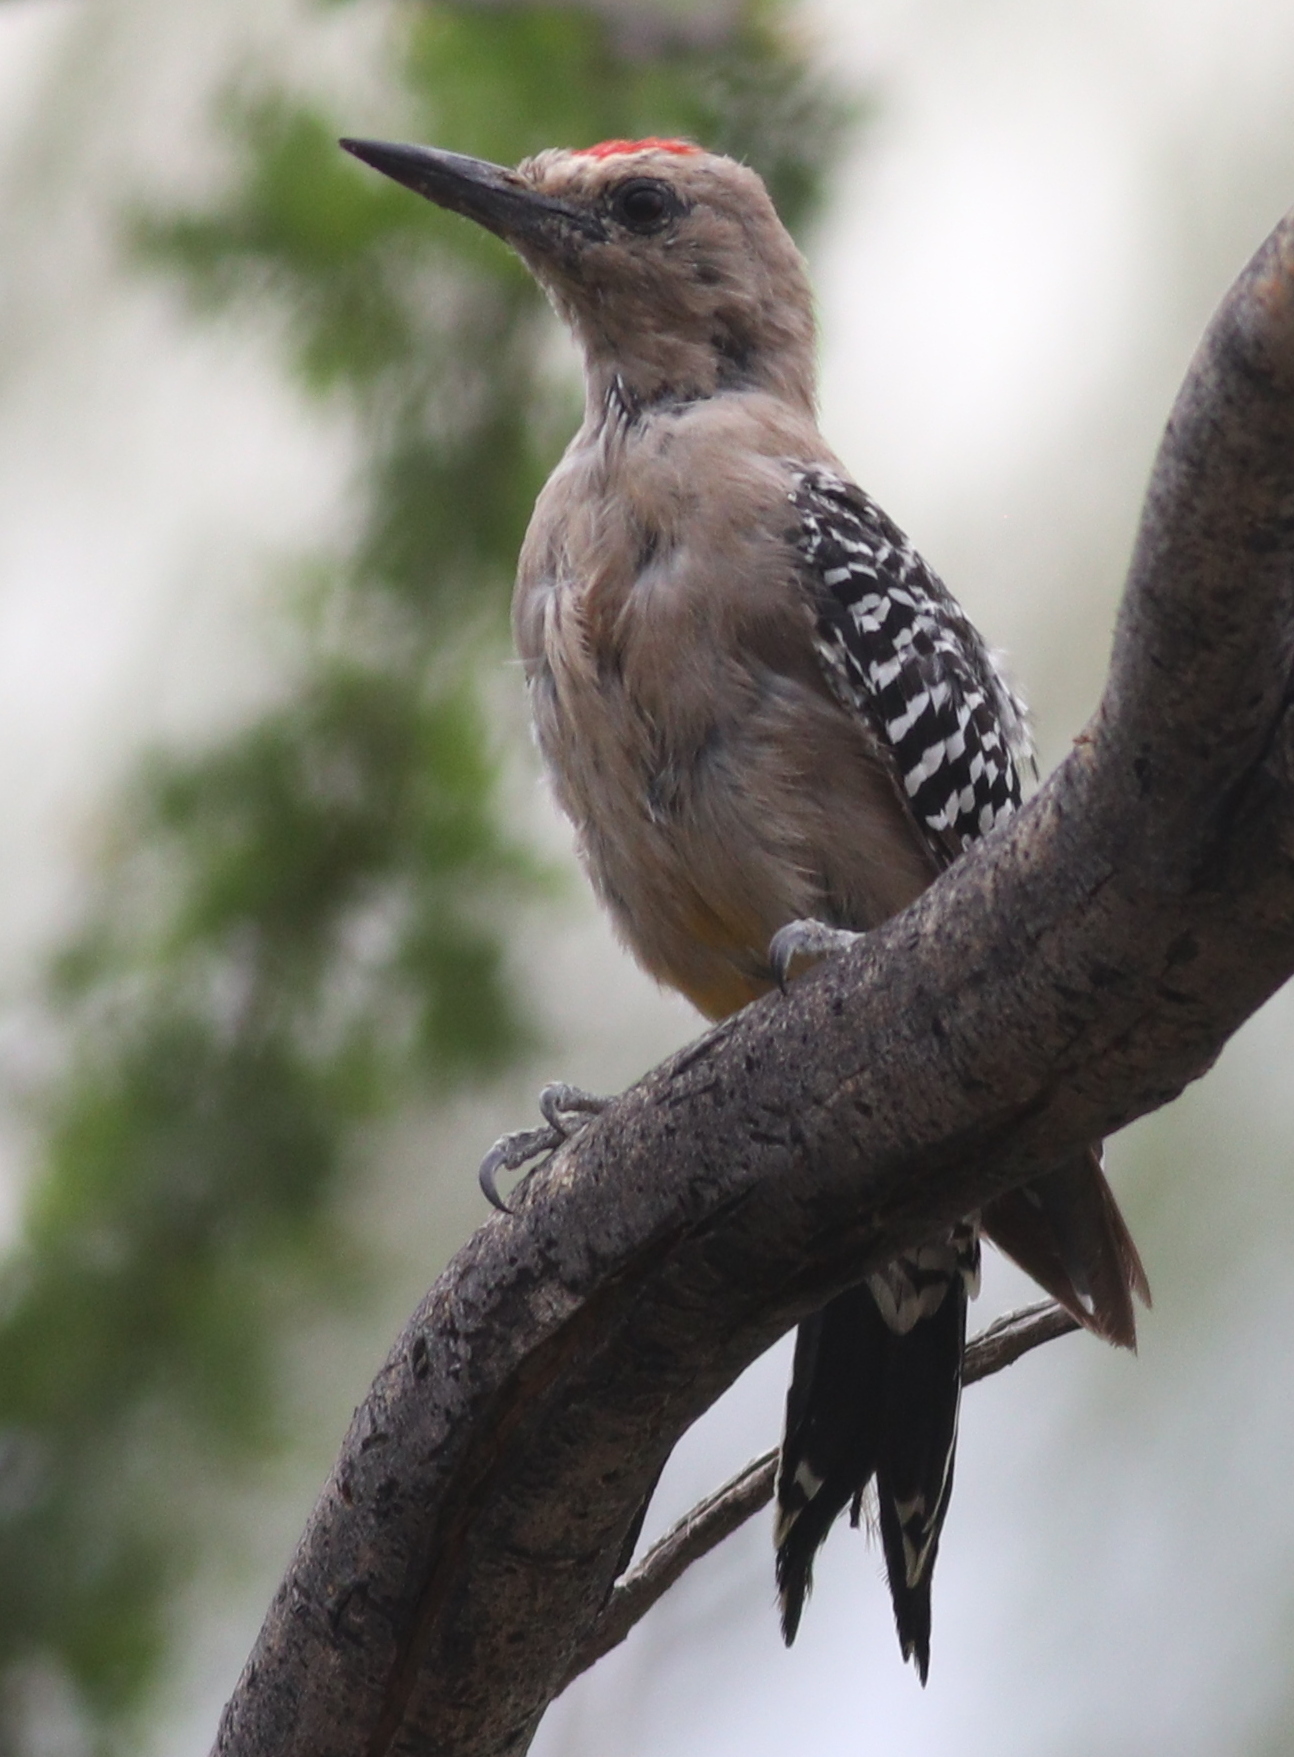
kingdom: Animalia
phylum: Chordata
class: Aves
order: Piciformes
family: Picidae
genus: Melanerpes
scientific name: Melanerpes uropygialis
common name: Gila woodpecker
